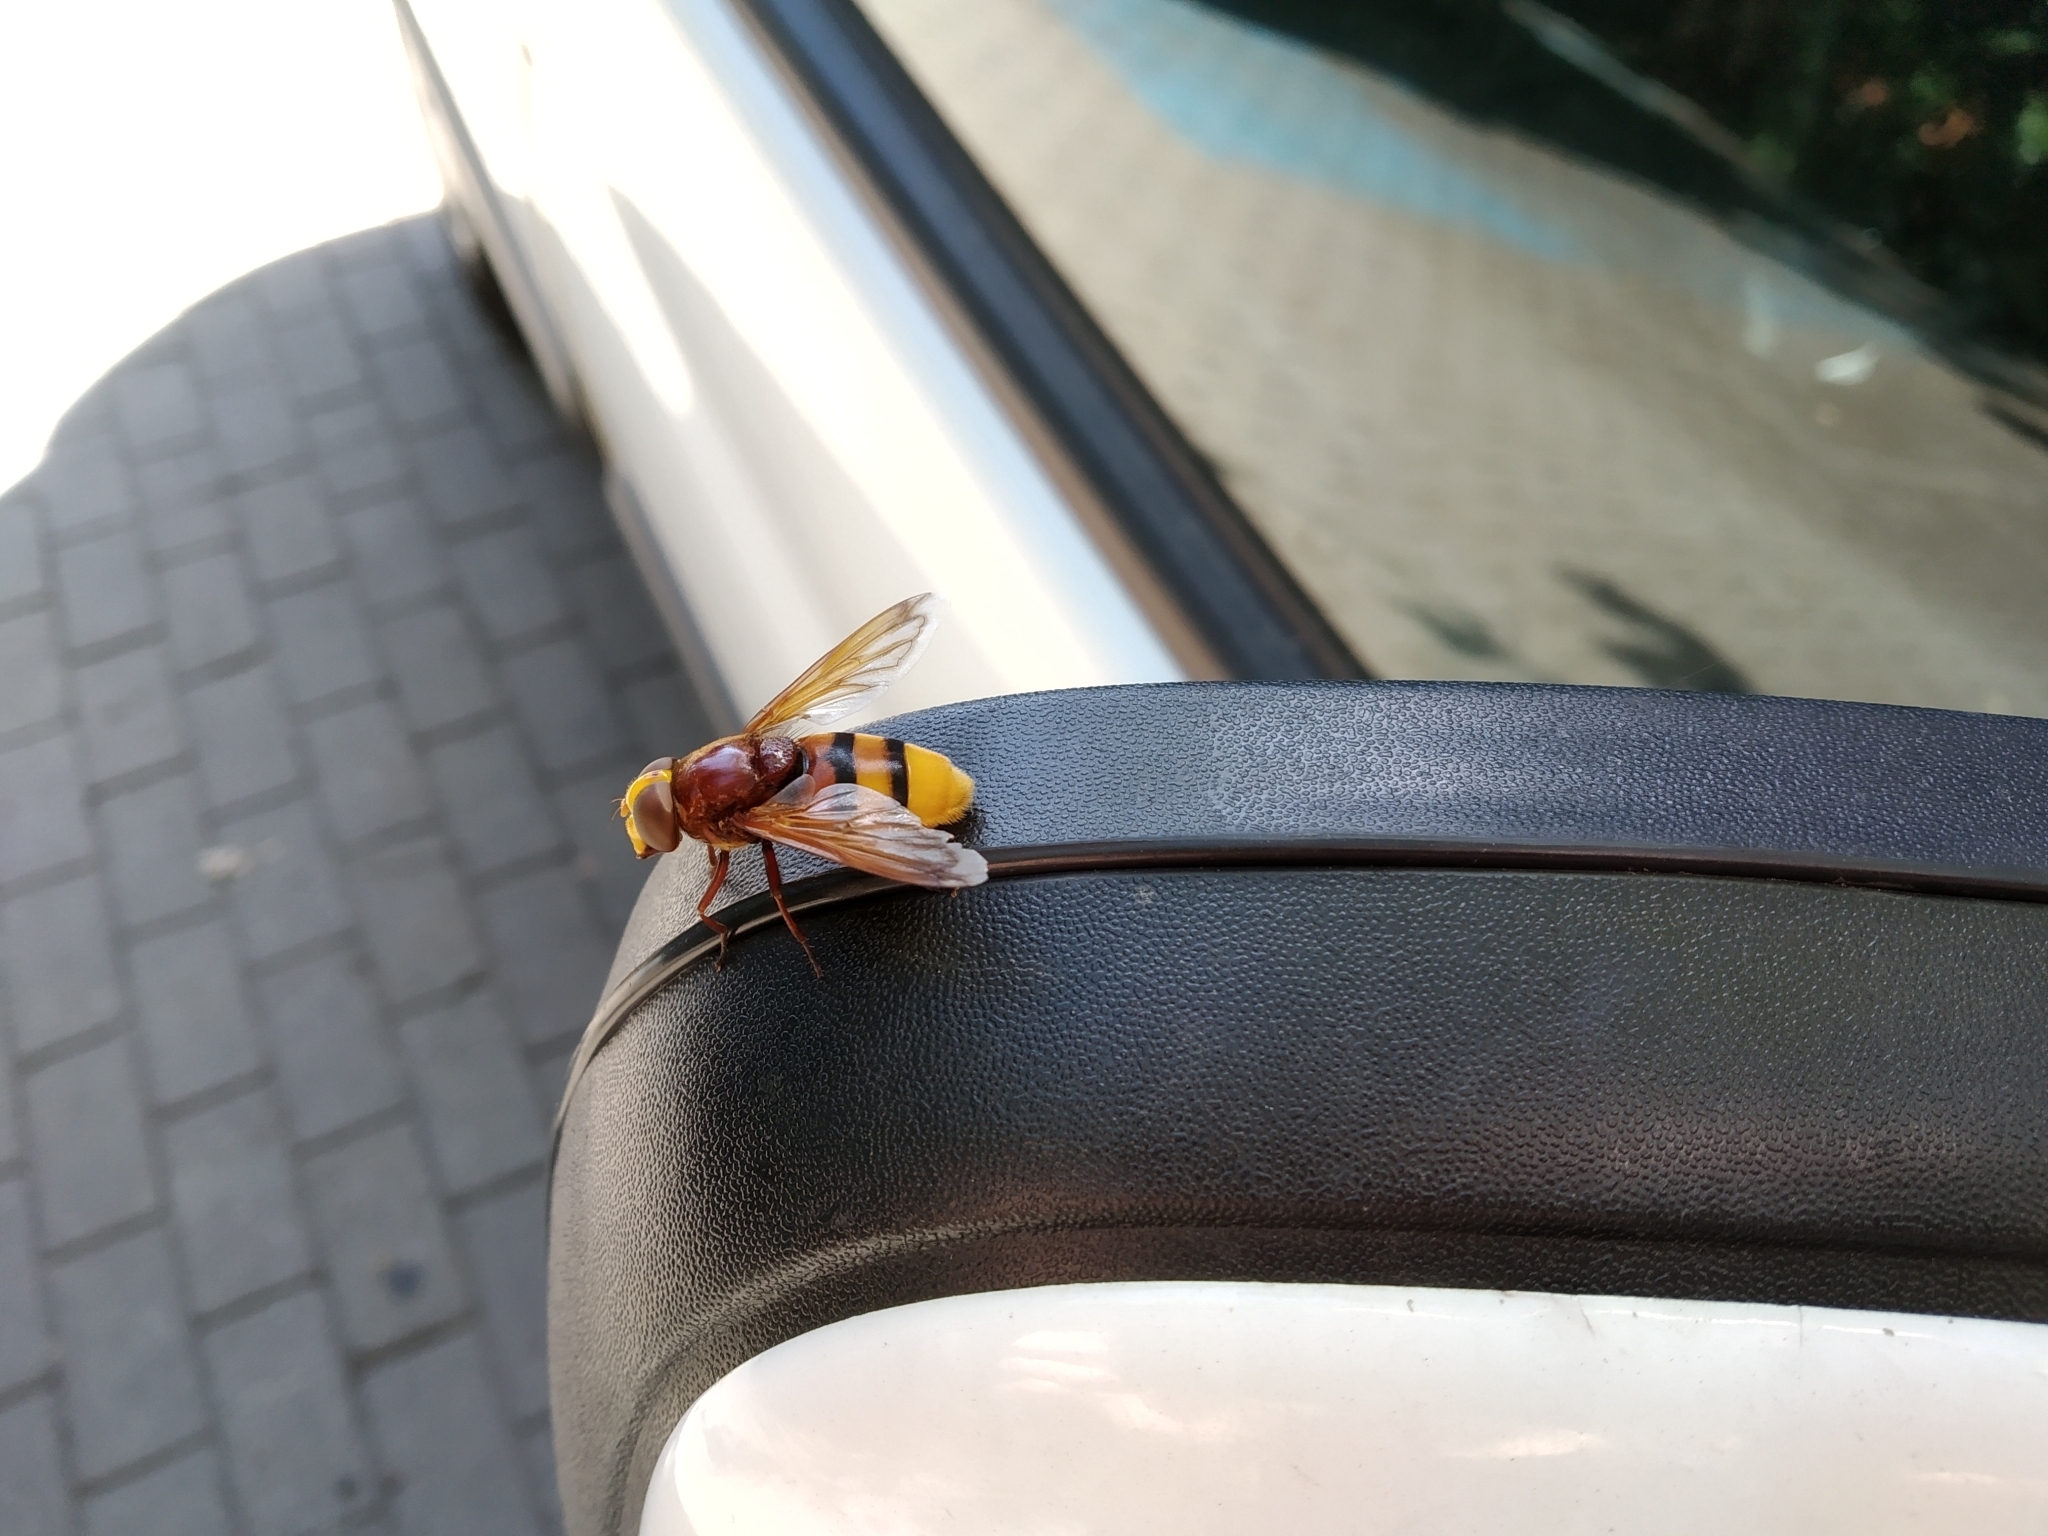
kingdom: Animalia
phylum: Arthropoda
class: Insecta
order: Diptera
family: Syrphidae
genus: Volucella
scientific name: Volucella zonaria
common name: Hornet hoverfly
